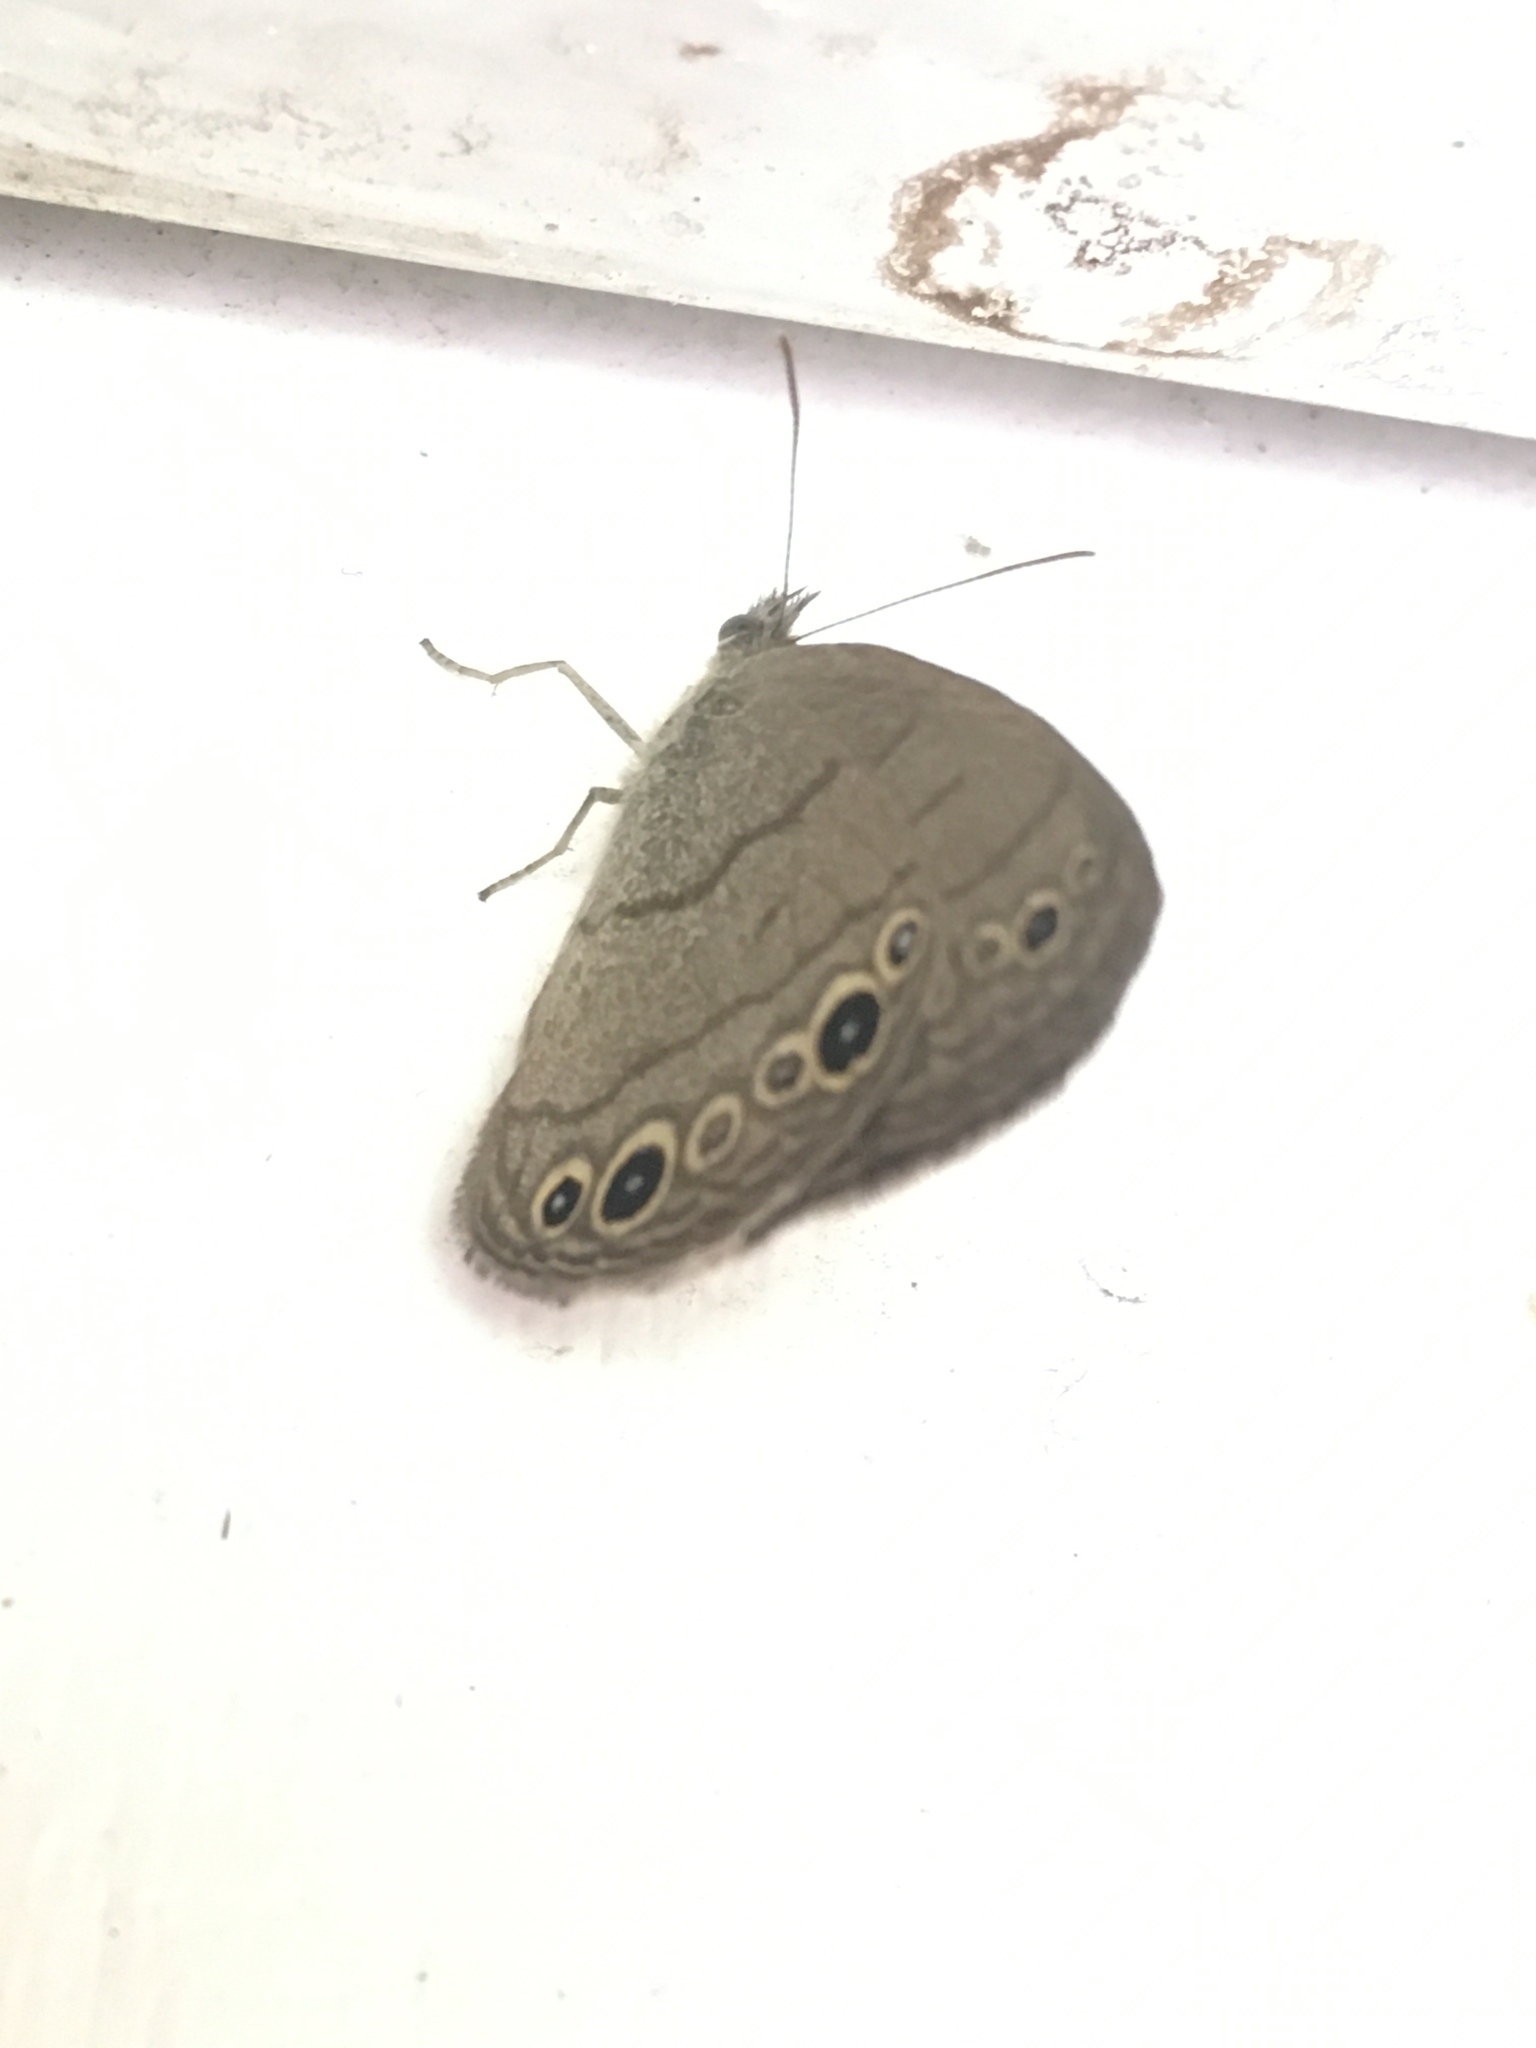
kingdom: Animalia
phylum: Arthropoda
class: Insecta
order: Lepidoptera
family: Nymphalidae
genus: Hermeuptychia
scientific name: Hermeuptychia hermes
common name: Hermes satyr
